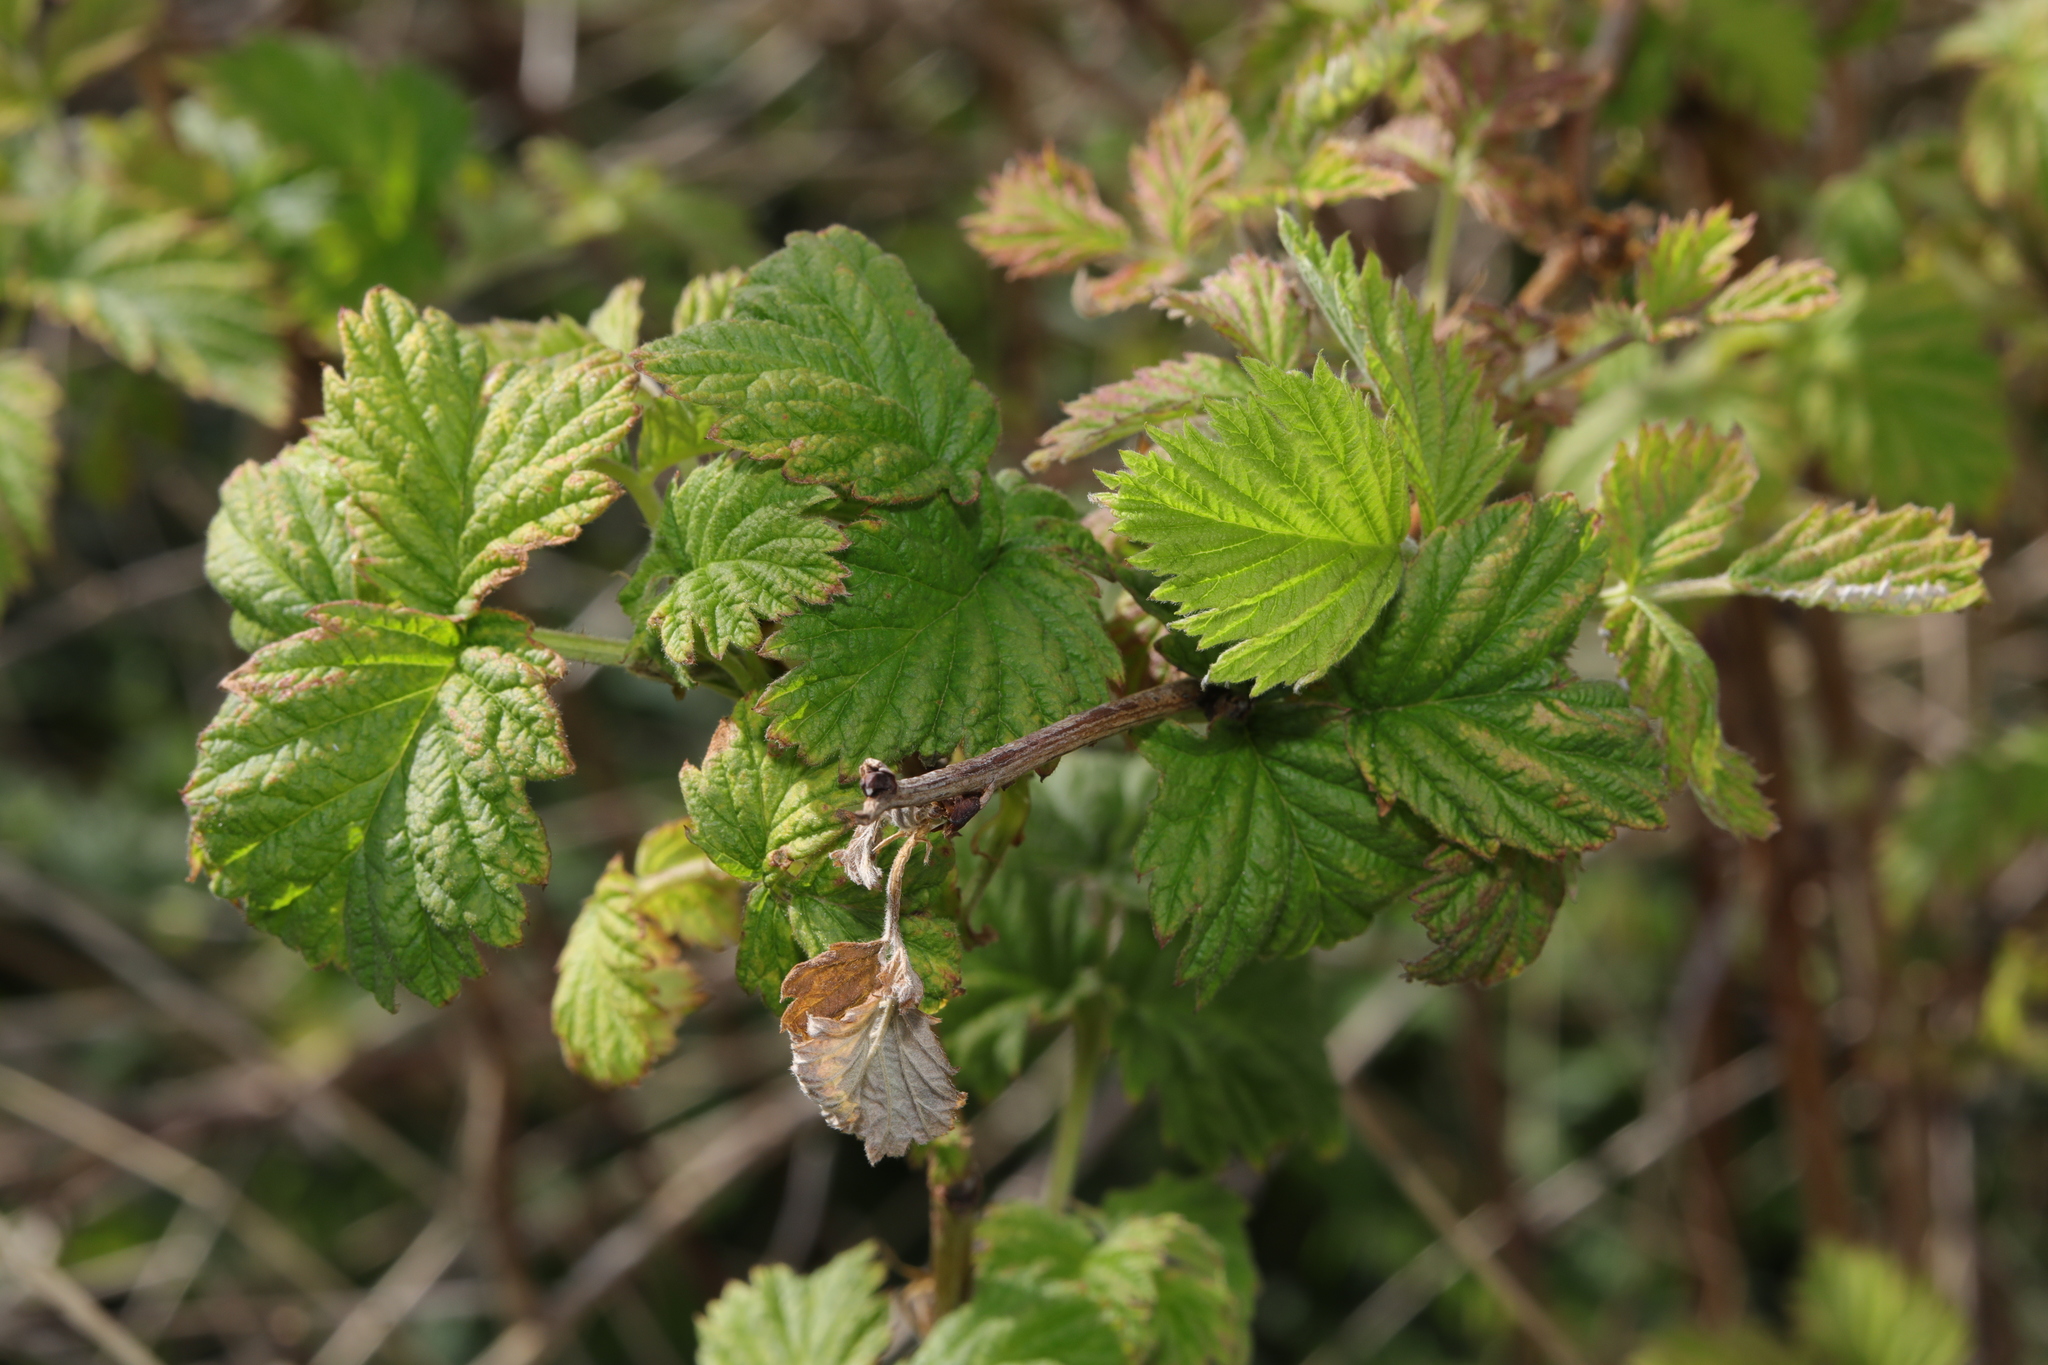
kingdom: Plantae
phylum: Tracheophyta
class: Magnoliopsida
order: Rosales
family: Rosaceae
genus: Rubus
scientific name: Rubus idaeus
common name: Raspberry
